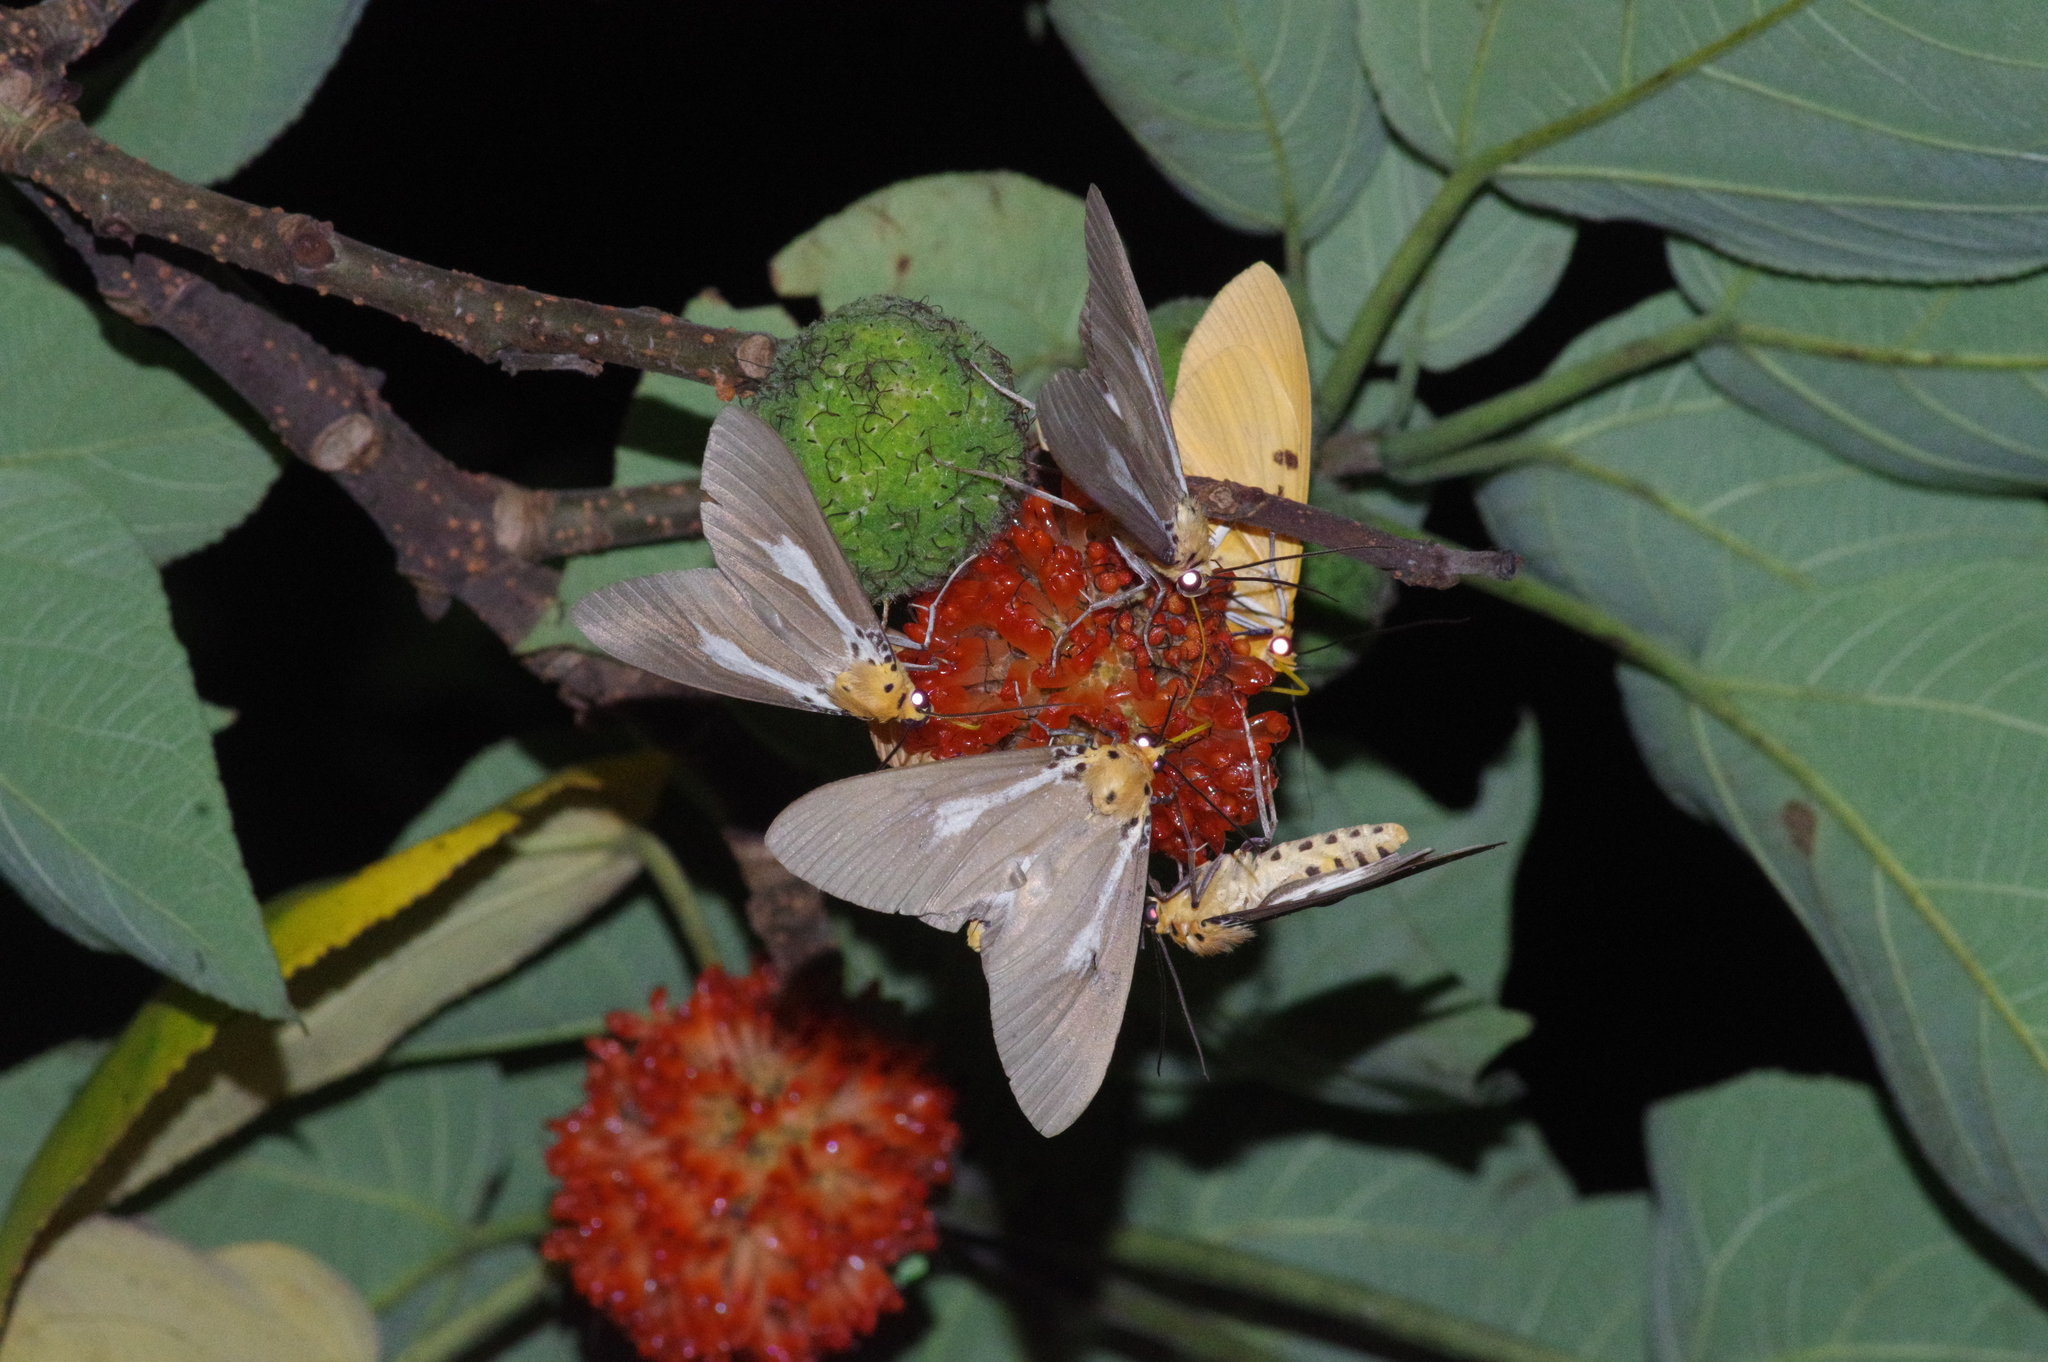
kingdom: Animalia
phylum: Arthropoda
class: Insecta
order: Lepidoptera
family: Erebidae
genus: Asota
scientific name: Asota heliconia
